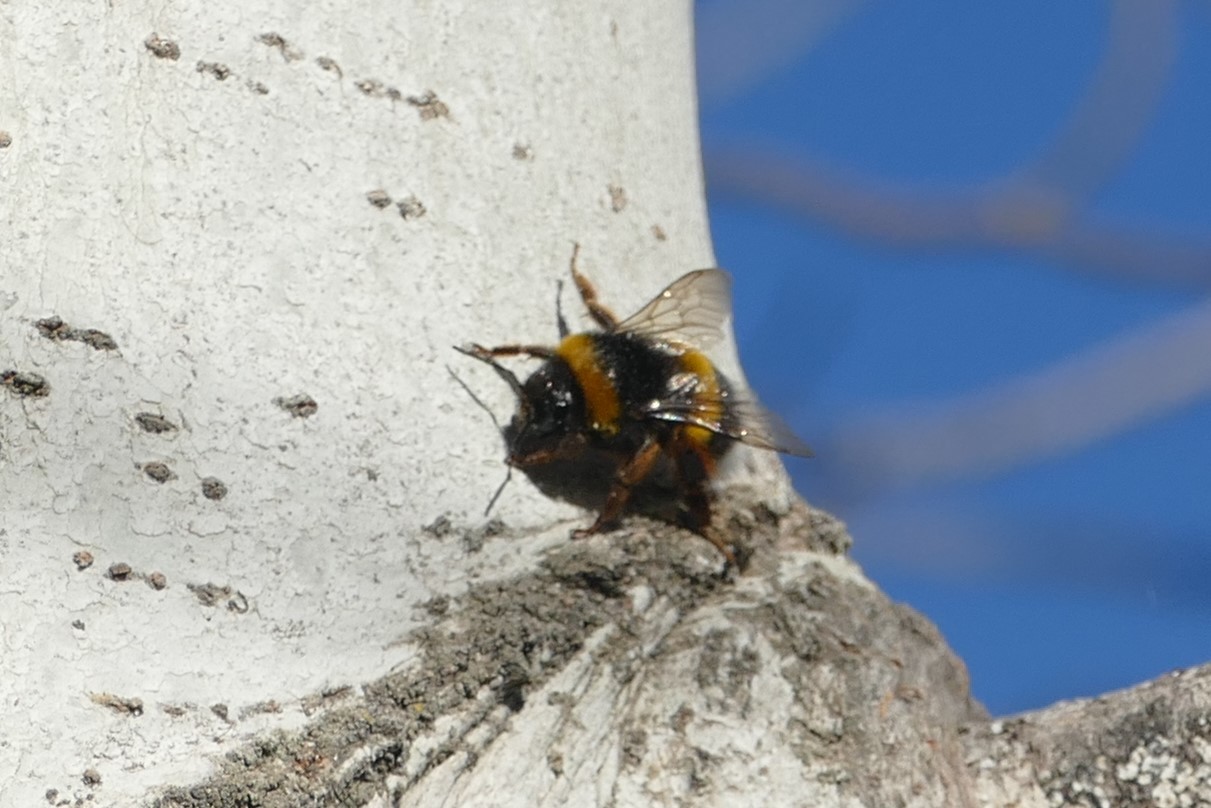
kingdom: Animalia
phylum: Arthropoda
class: Insecta
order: Hymenoptera
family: Apidae
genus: Bombus
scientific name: Bombus terrestris
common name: Buff-tailed bumblebee
